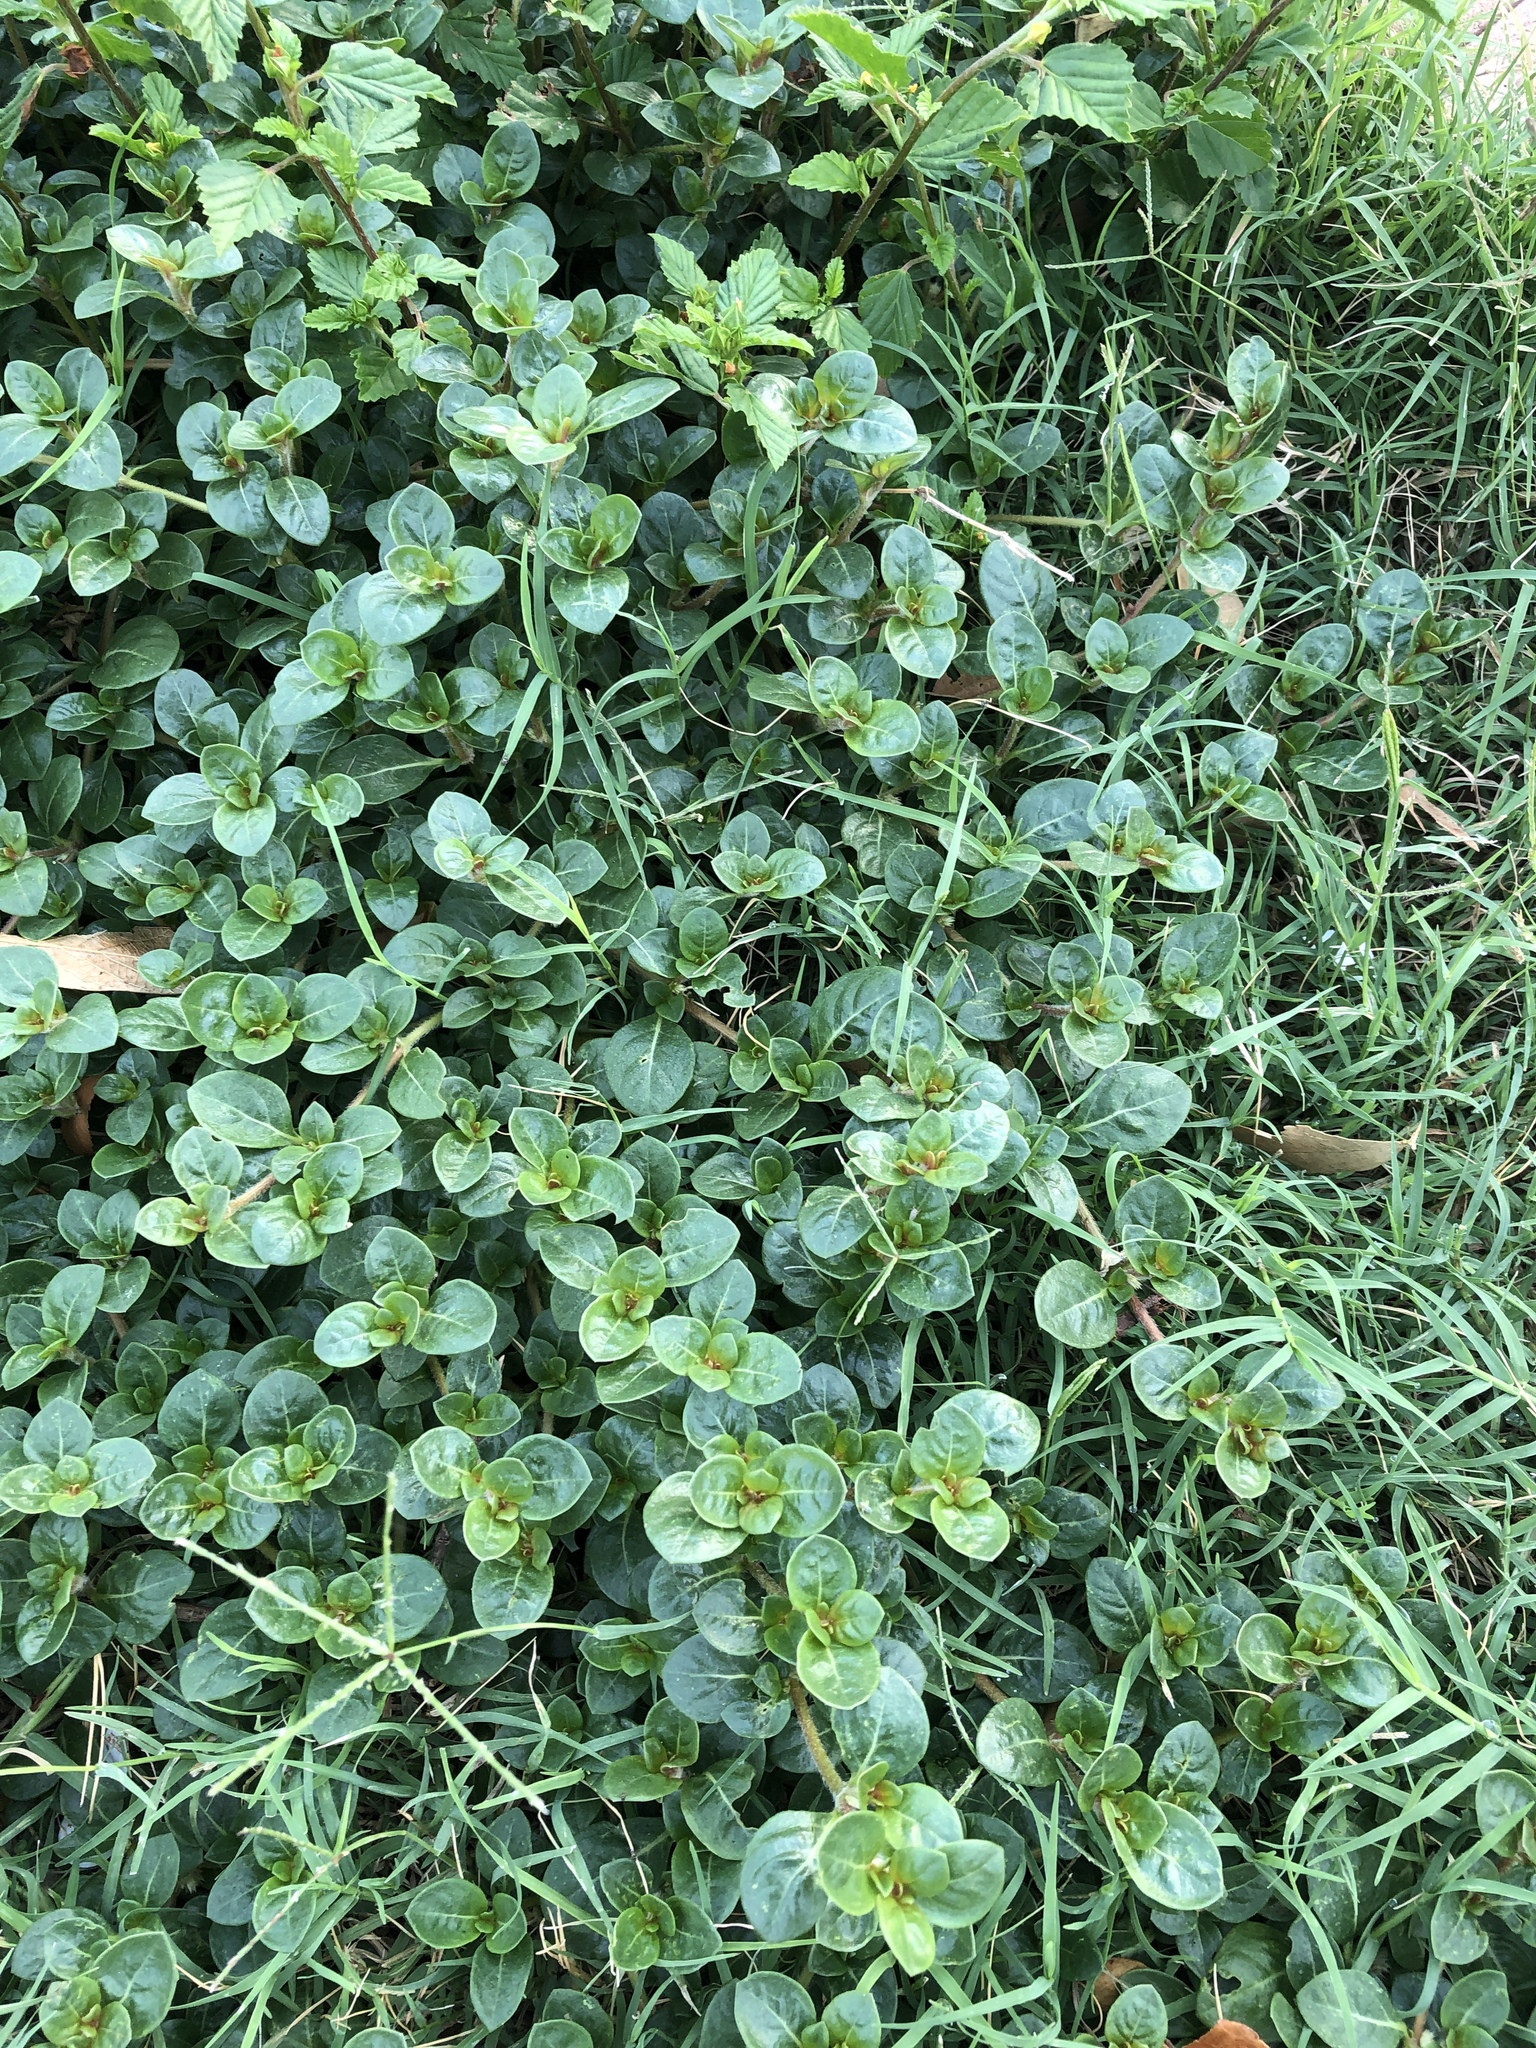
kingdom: Plantae
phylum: Tracheophyta
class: Magnoliopsida
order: Caryophyllales
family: Amaranthaceae
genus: Alternanthera
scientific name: Alternanthera pungens
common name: Khakiweed
